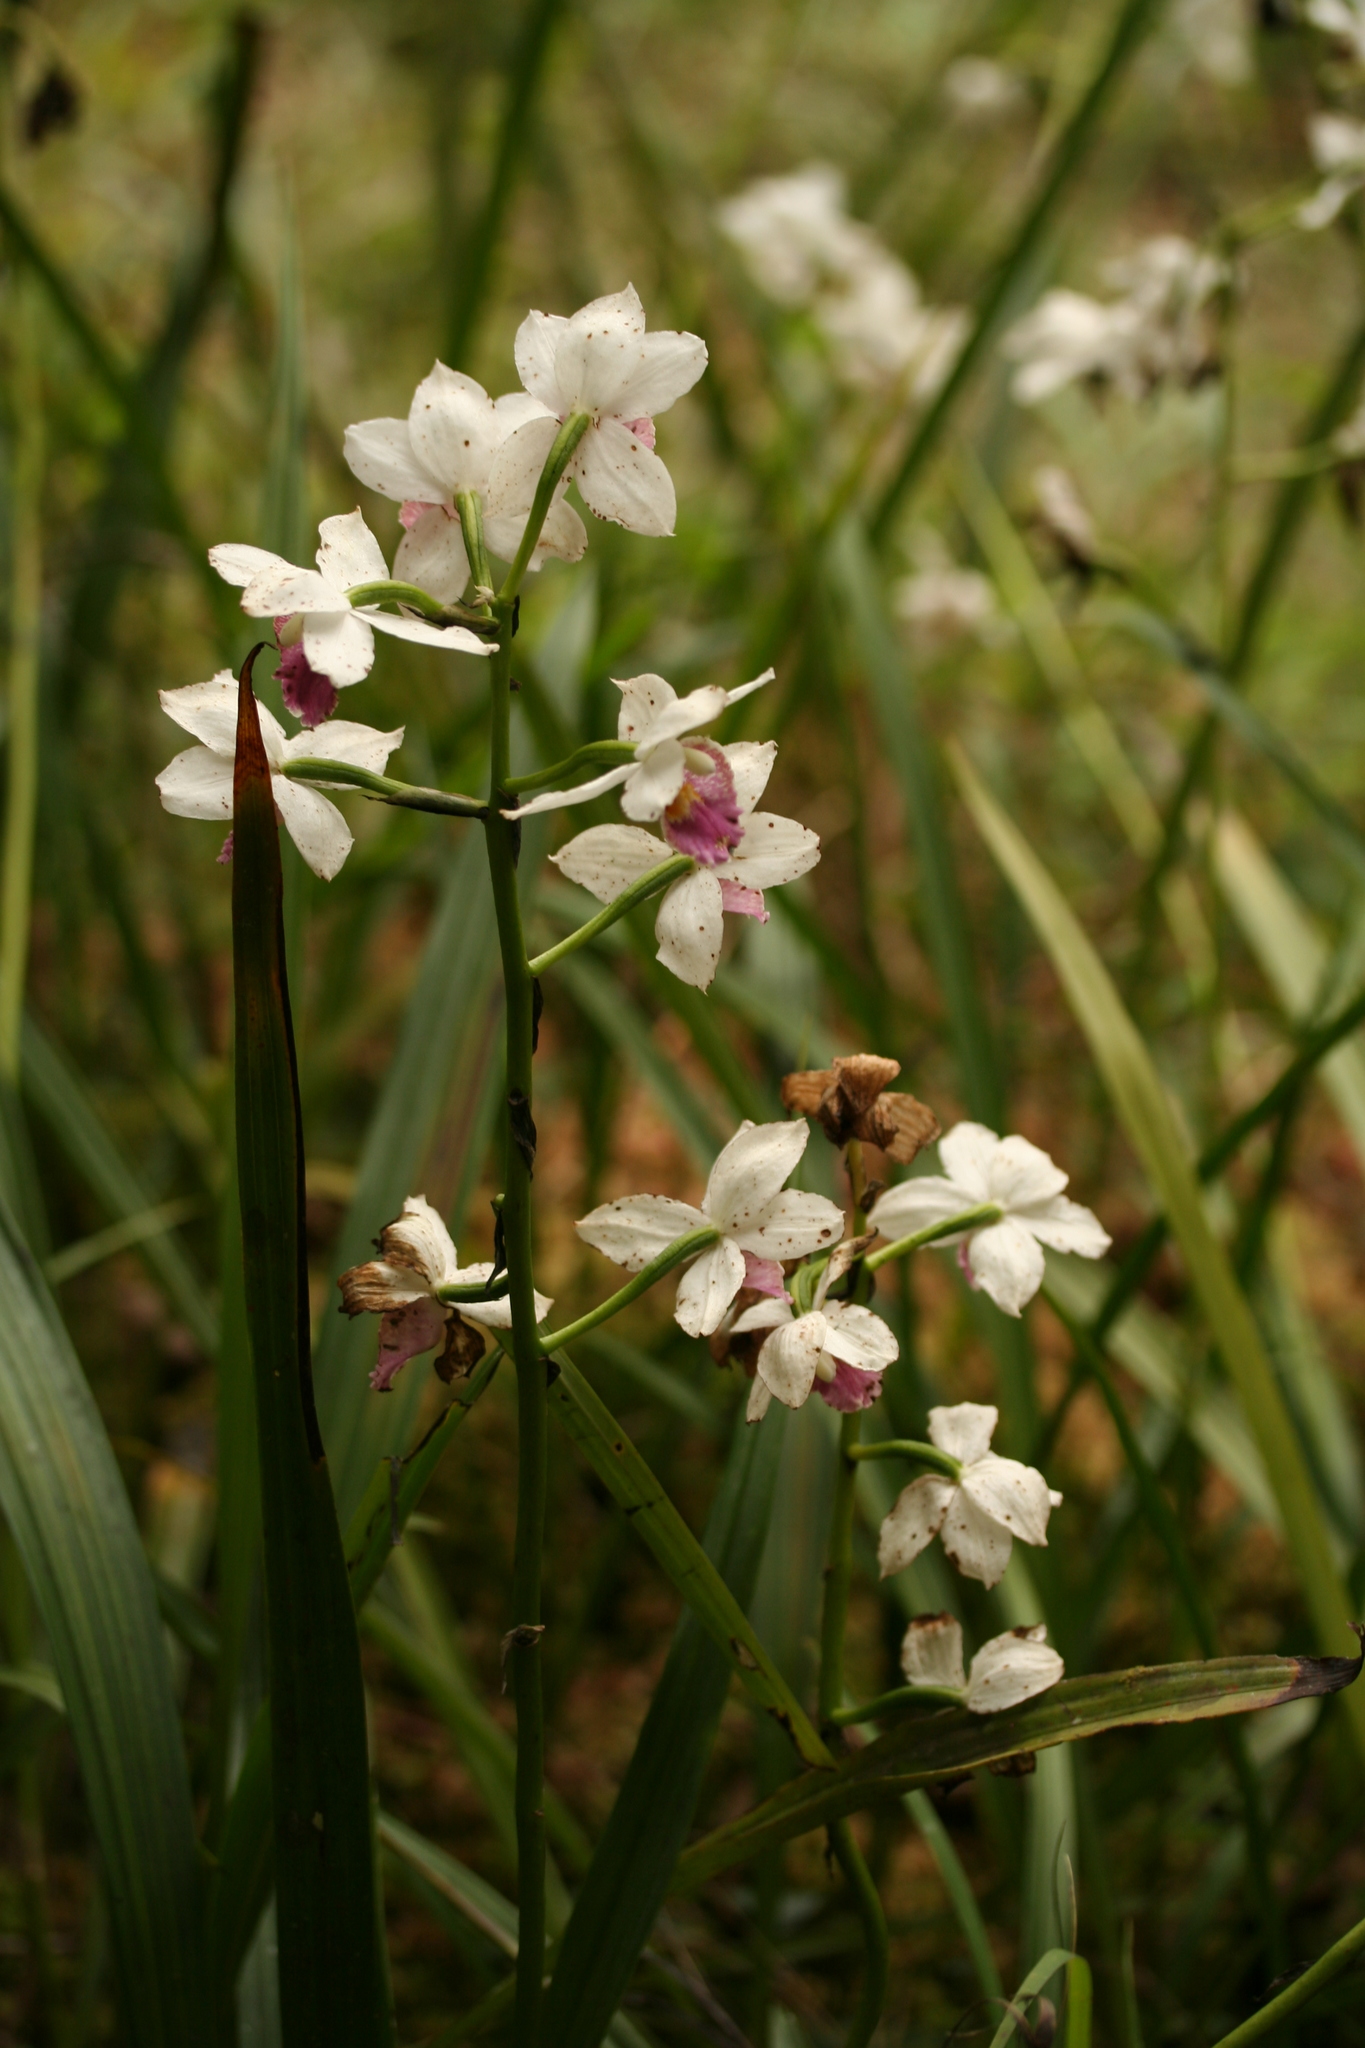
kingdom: Plantae
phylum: Tracheophyta
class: Liliopsida
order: Asparagales
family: Orchidaceae
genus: Calanthe
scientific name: Calanthe decora
